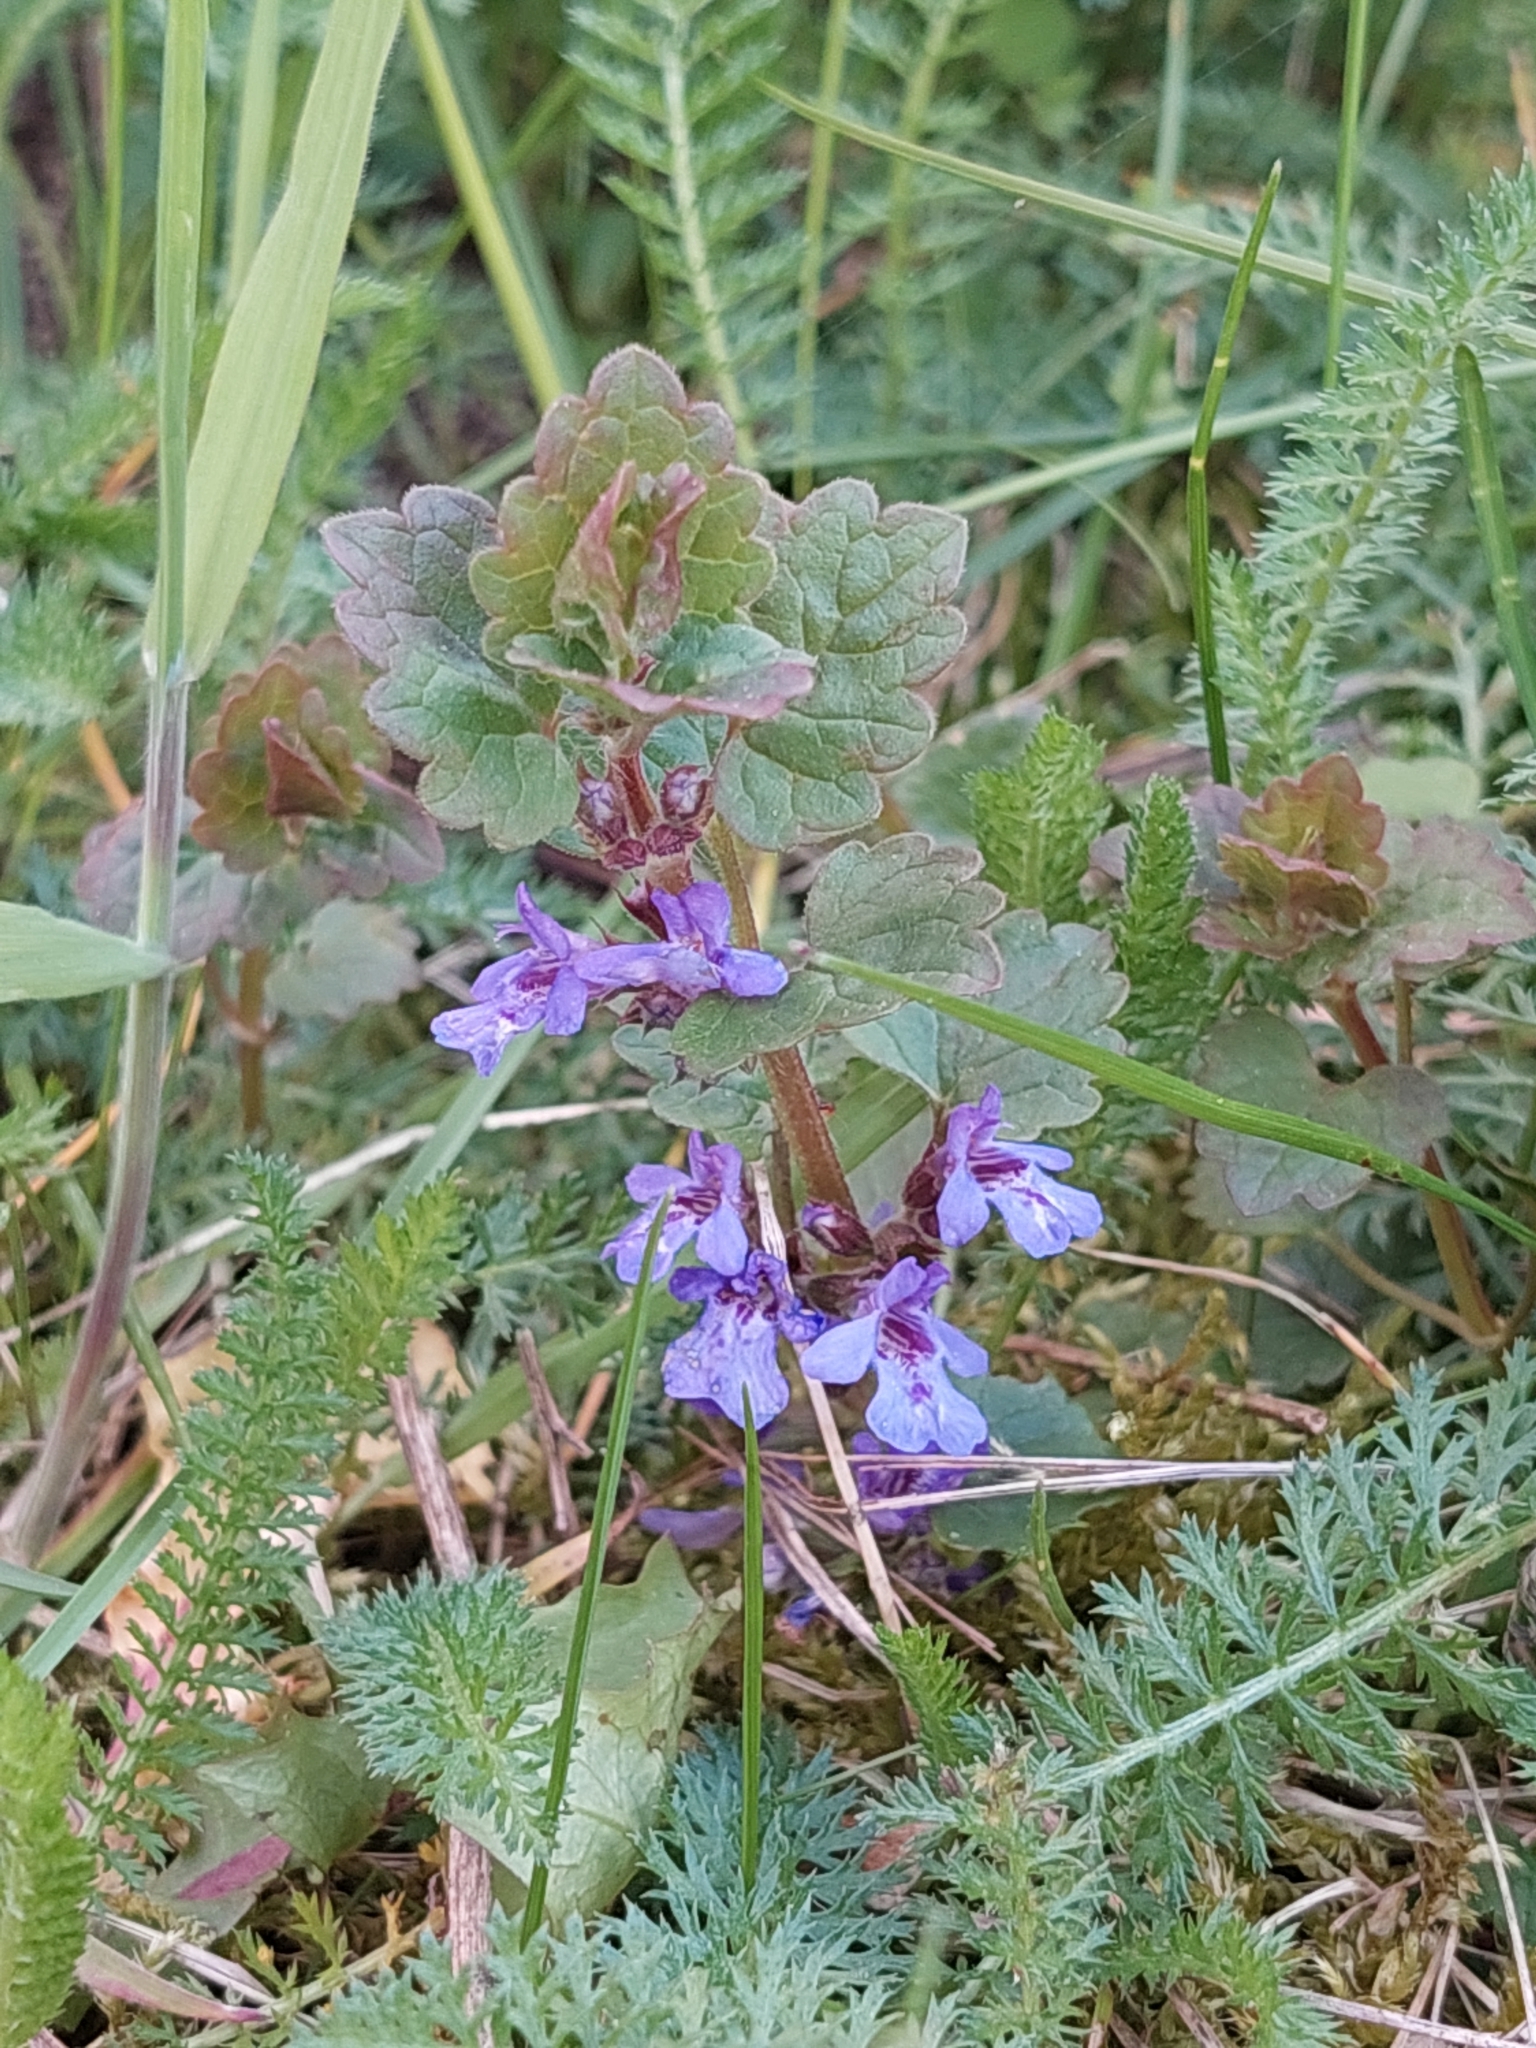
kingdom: Plantae
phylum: Tracheophyta
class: Magnoliopsida
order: Lamiales
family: Lamiaceae
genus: Glechoma
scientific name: Glechoma hederacea
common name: Ground ivy
